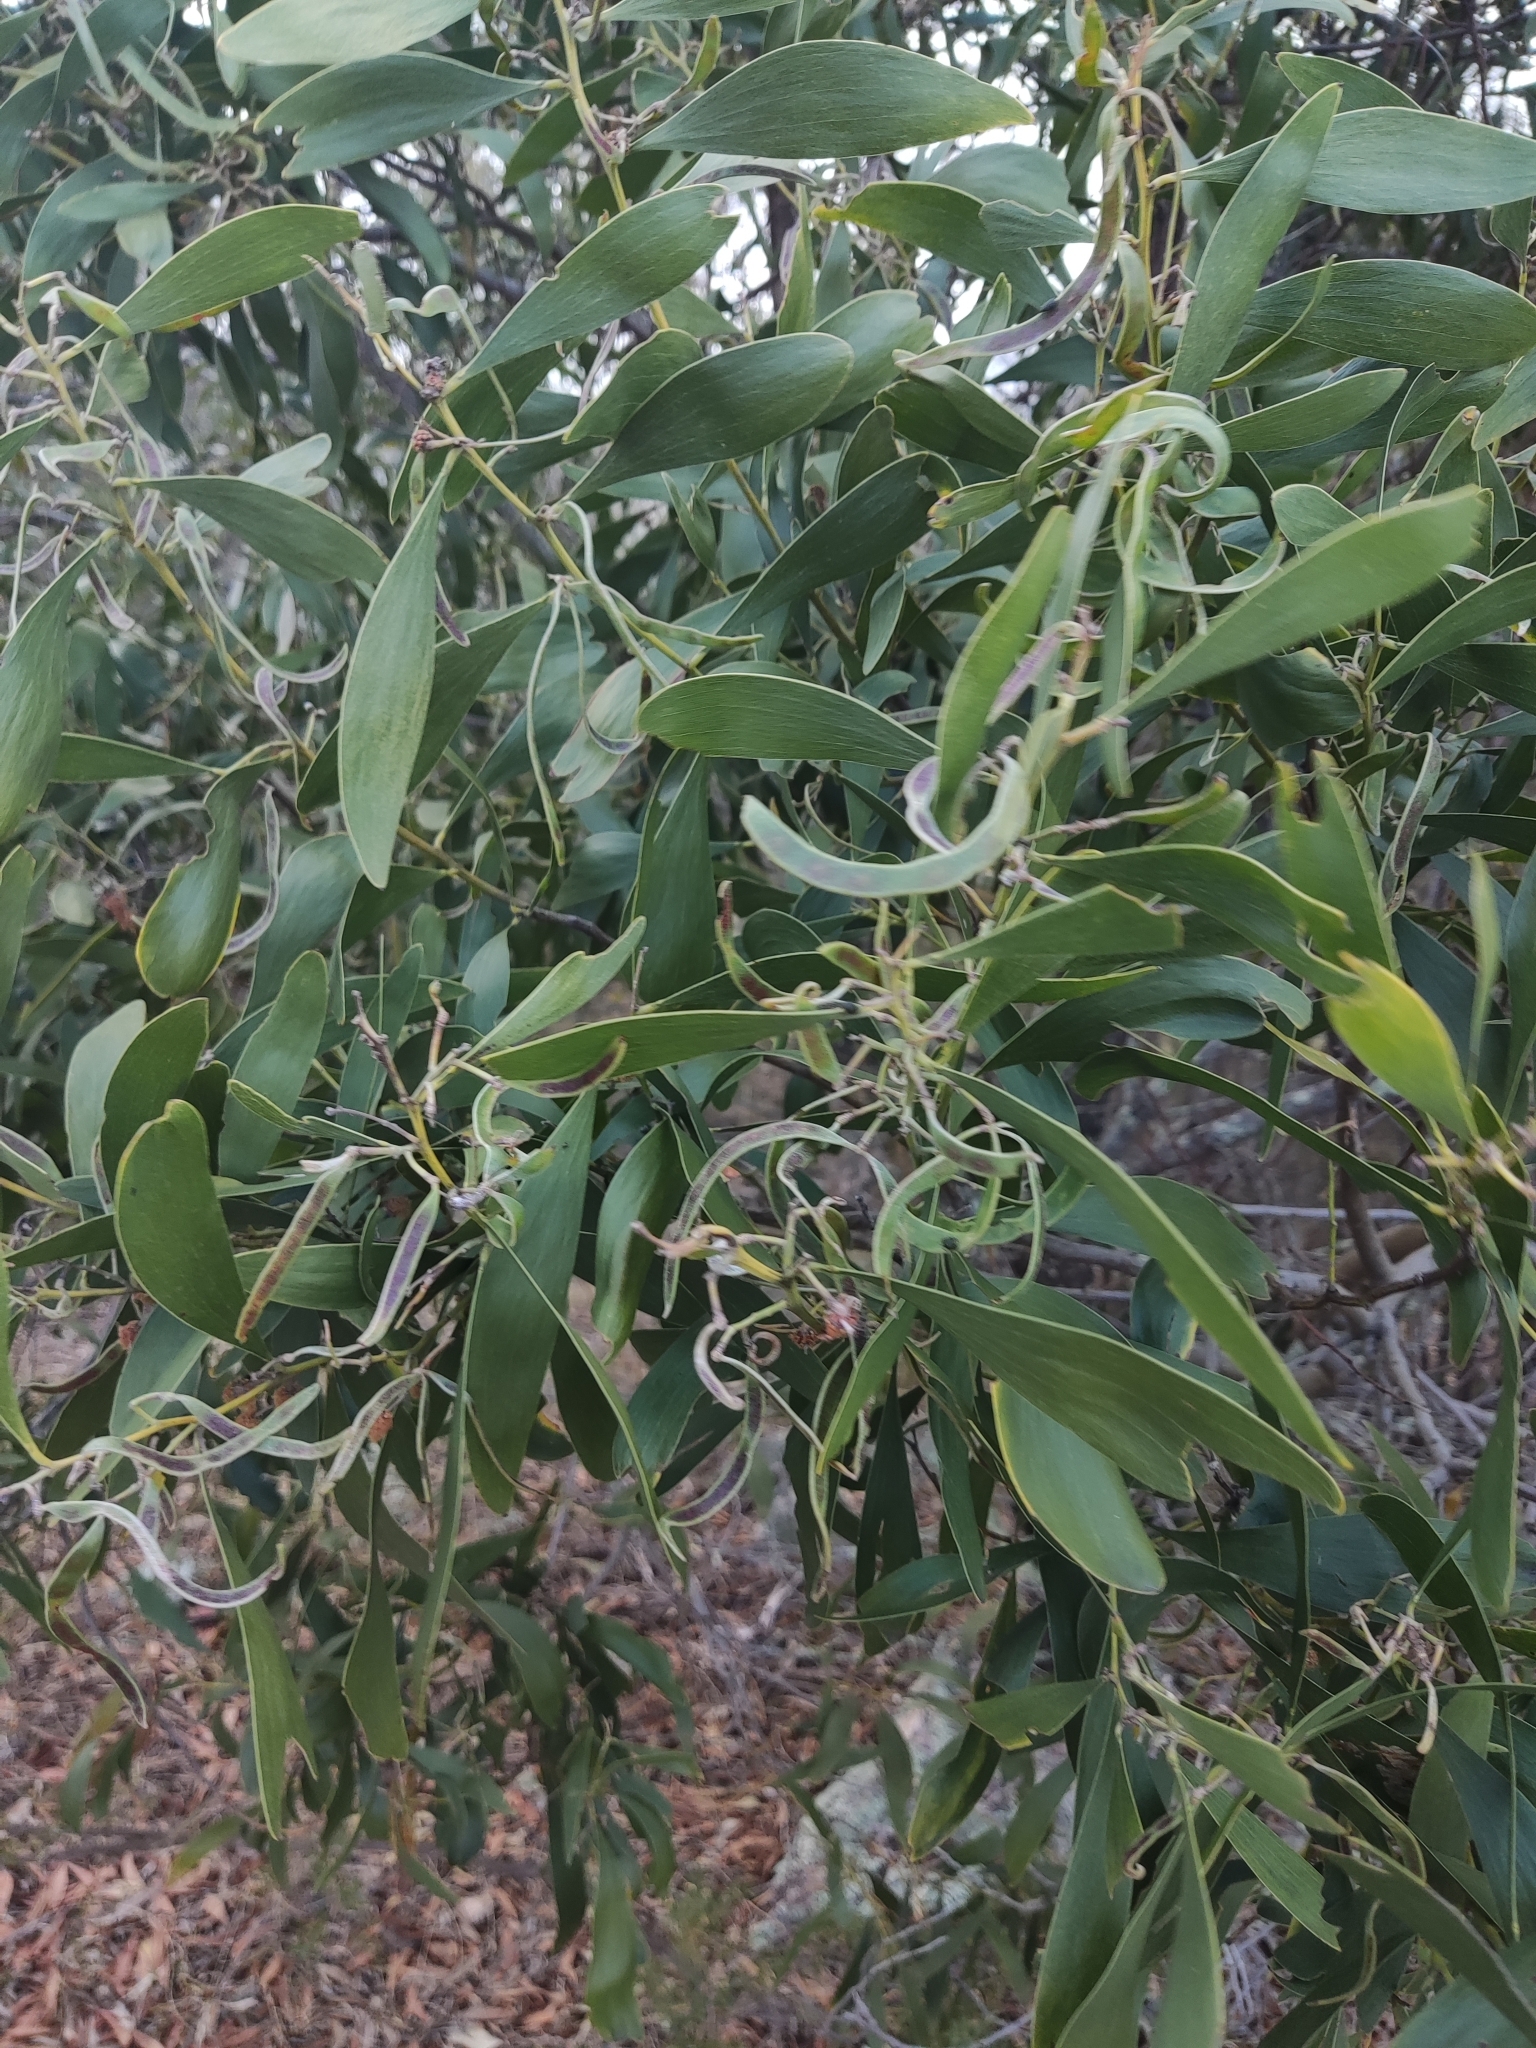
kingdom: Plantae
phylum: Tracheophyta
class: Magnoliopsida
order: Fabales
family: Fabaceae
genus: Acacia
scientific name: Acacia melanoxylon
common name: Blackwood
